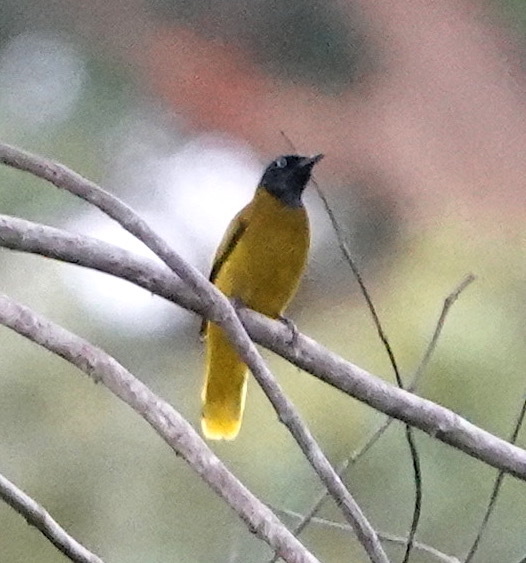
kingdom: Animalia
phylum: Chordata
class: Aves
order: Passeriformes
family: Pycnonotidae
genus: Microtarsus
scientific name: Microtarsus
